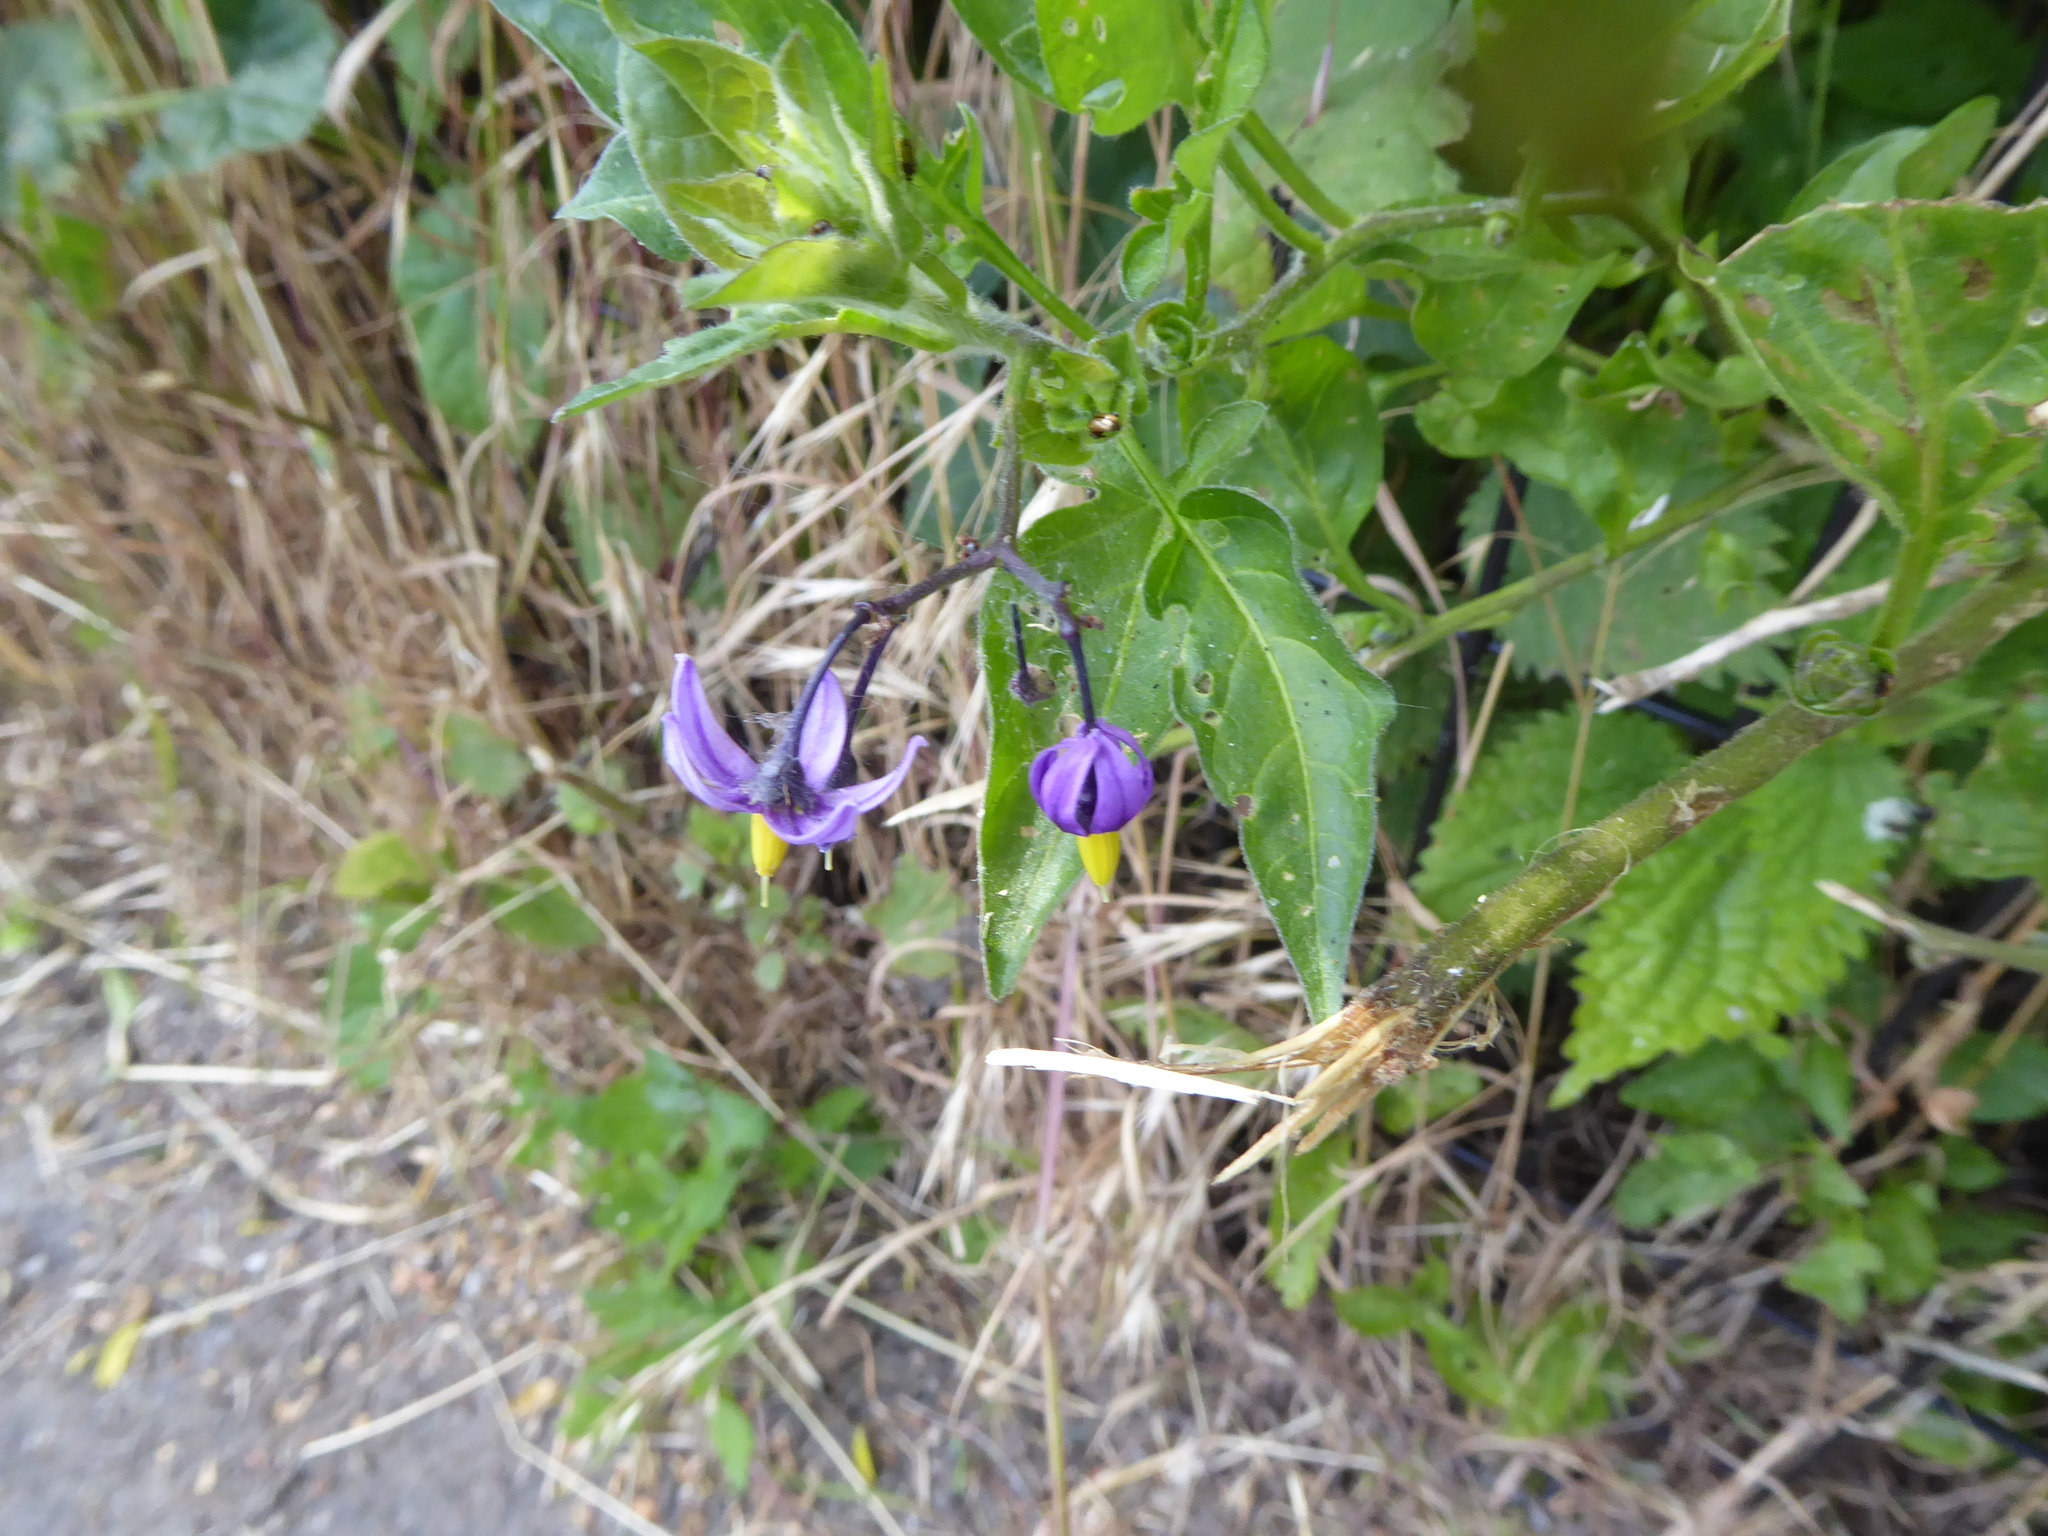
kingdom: Plantae
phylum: Tracheophyta
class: Magnoliopsida
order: Solanales
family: Solanaceae
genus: Solanum
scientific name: Solanum dulcamara
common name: Climbing nightshade
